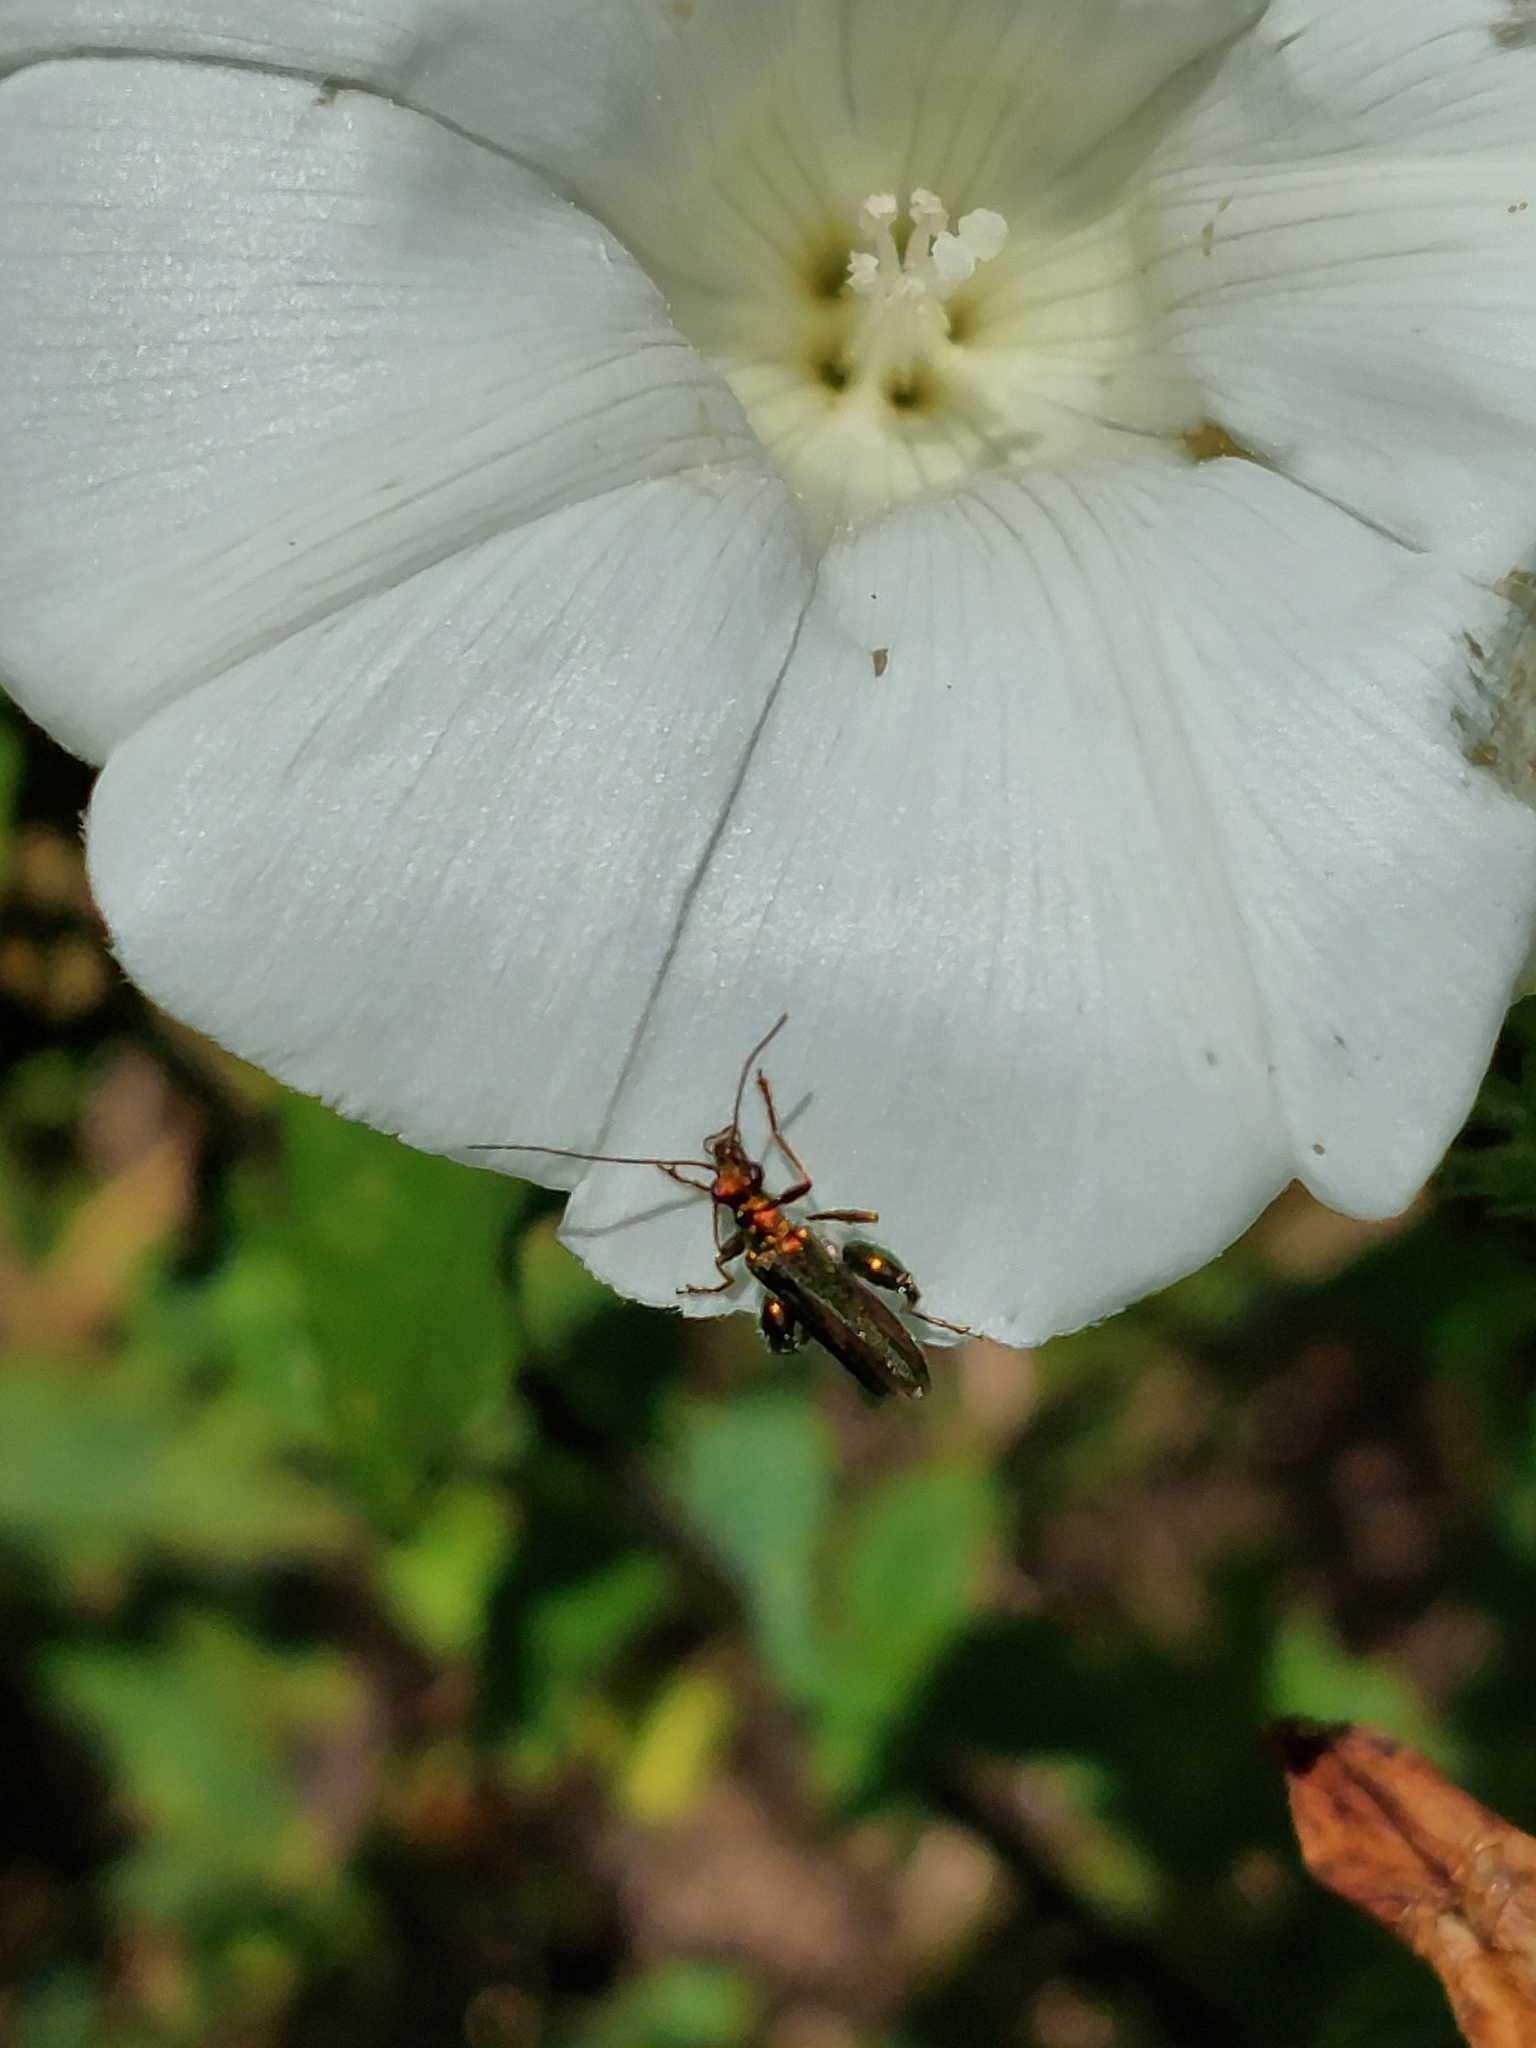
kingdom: Animalia
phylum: Arthropoda
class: Insecta
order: Coleoptera
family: Oedemeridae
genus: Oedemera
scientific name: Oedemera nobilis
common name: Swollen-thighed beetle
